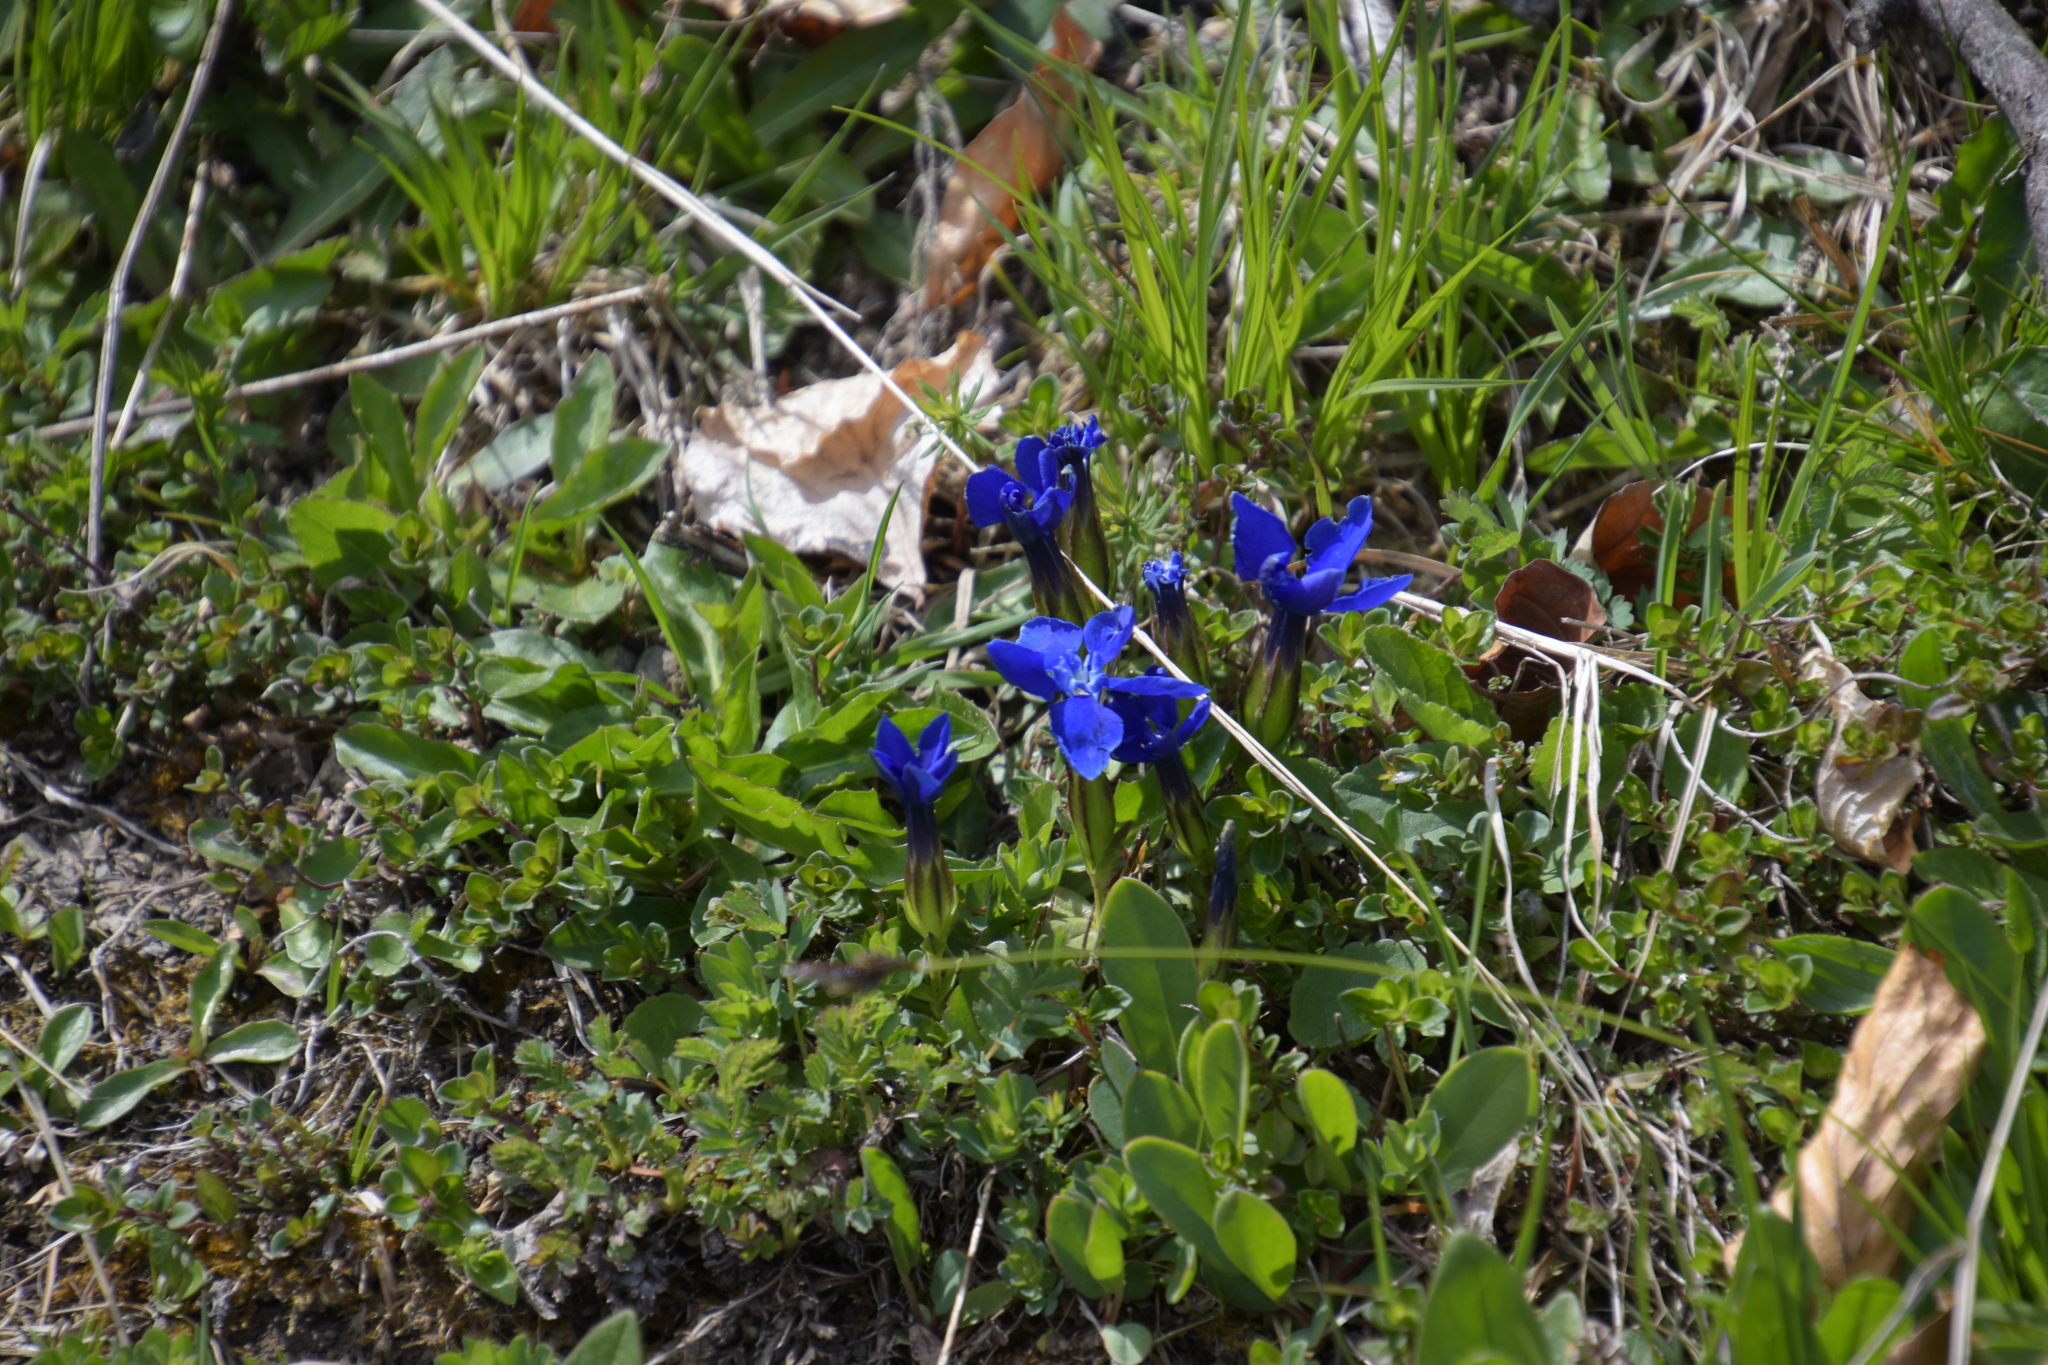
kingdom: Plantae
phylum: Tracheophyta
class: Magnoliopsida
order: Gentianales
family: Gentianaceae
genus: Gentiana
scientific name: Gentiana verna
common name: Spring gentian
